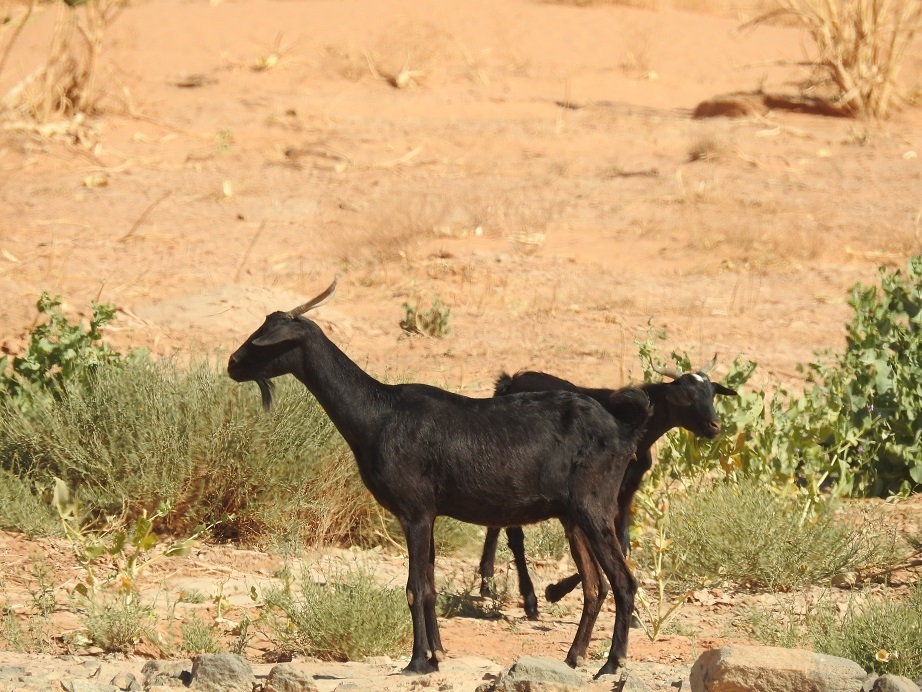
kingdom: Animalia
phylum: Chordata
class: Mammalia
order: Artiodactyla
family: Bovidae
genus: Capra
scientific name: Capra hircus
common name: Domestic goat
